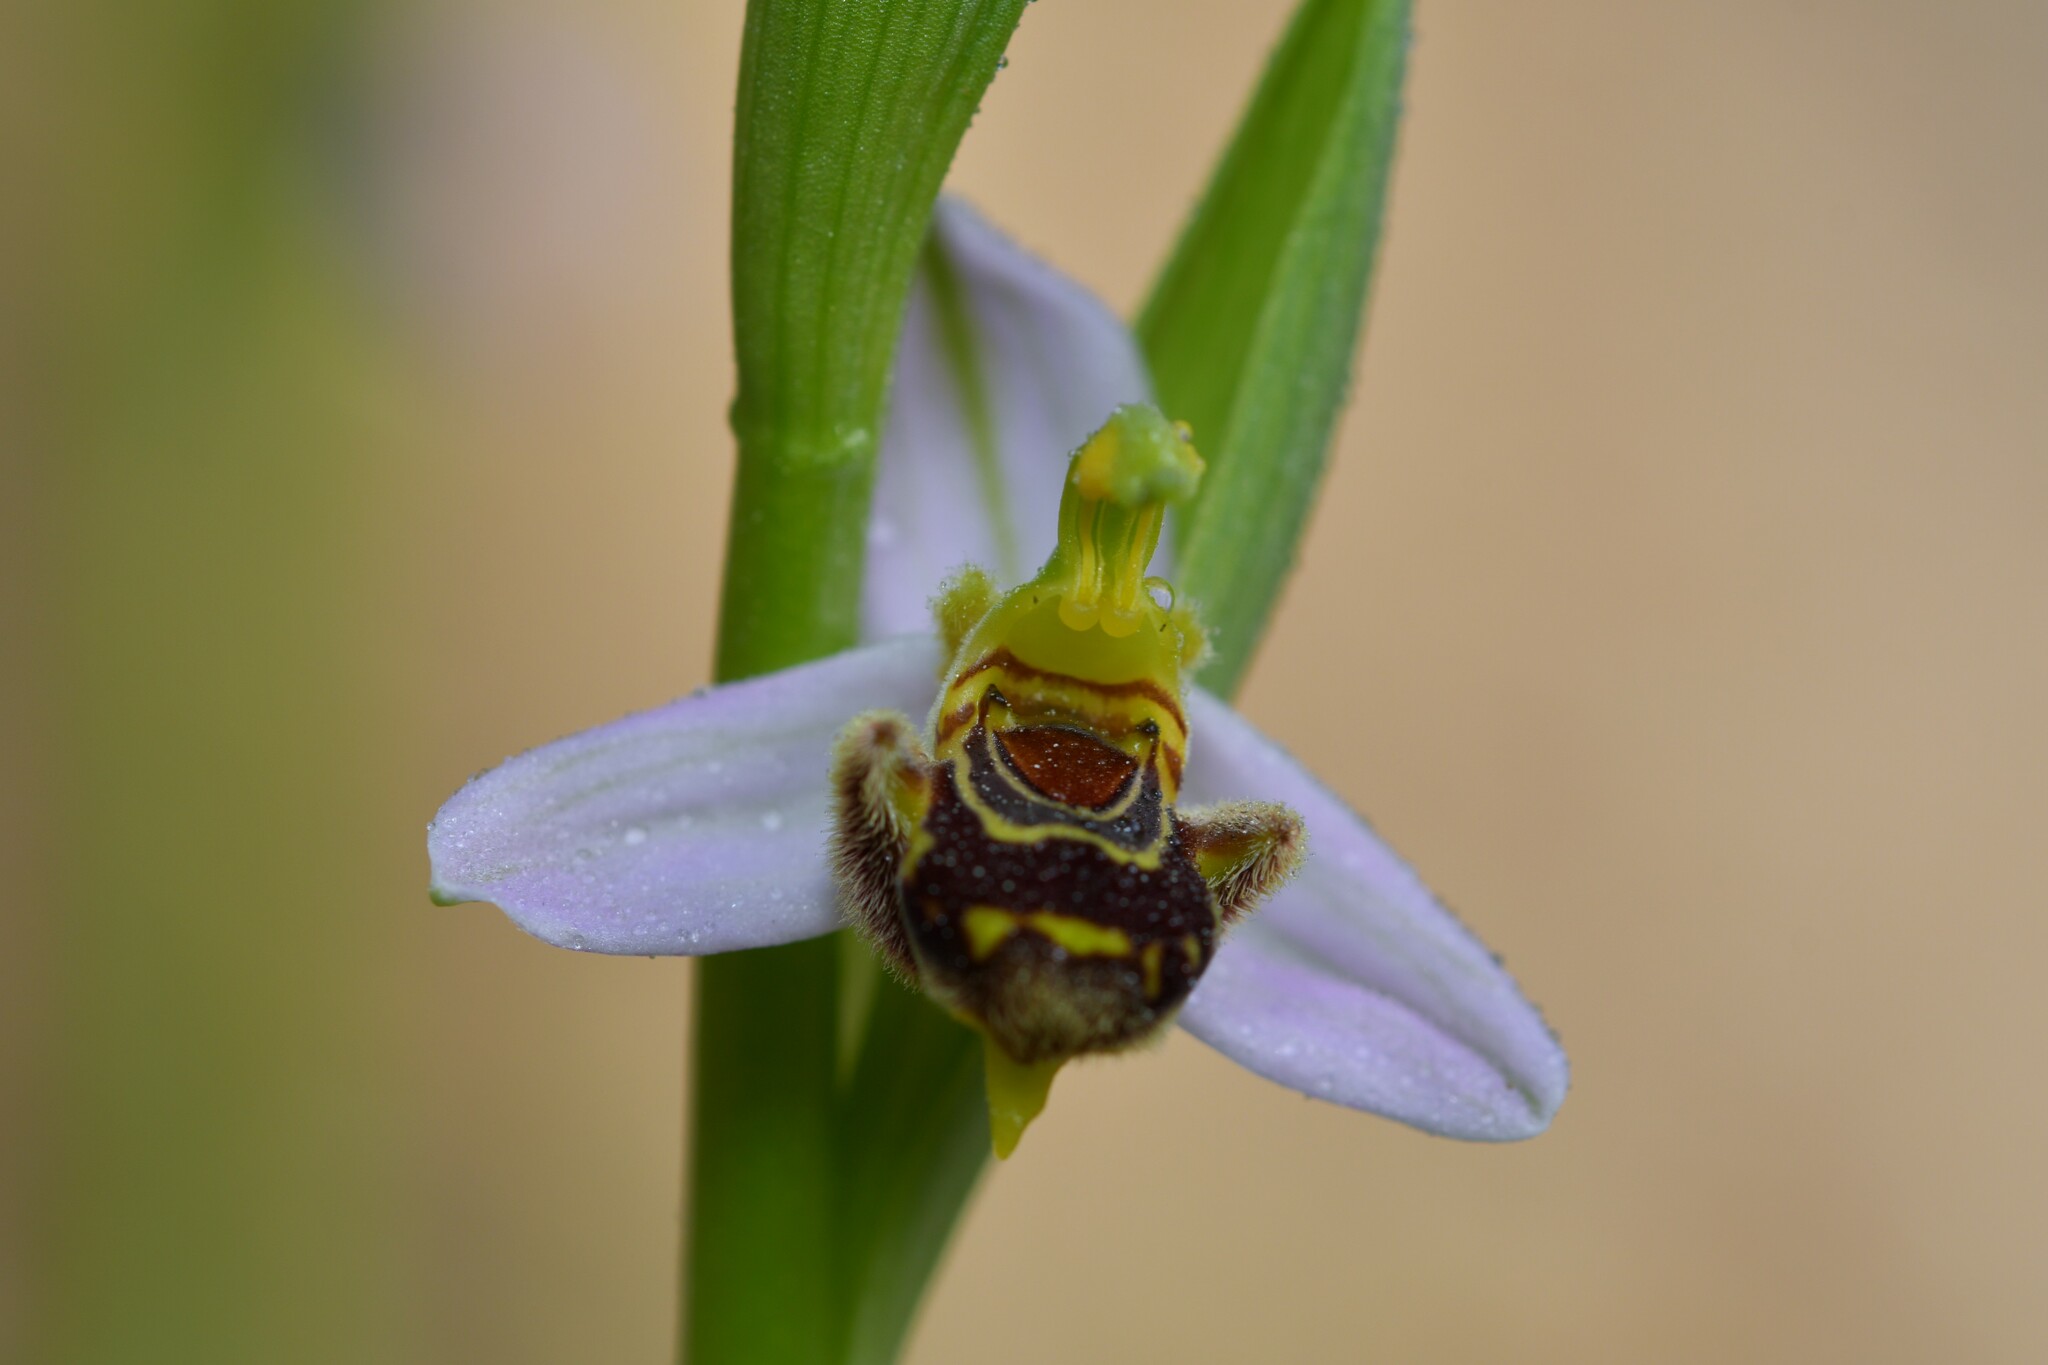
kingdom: Plantae
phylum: Tracheophyta
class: Liliopsida
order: Asparagales
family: Orchidaceae
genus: Ophrys
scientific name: Ophrys apifera
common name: Bee orchid
